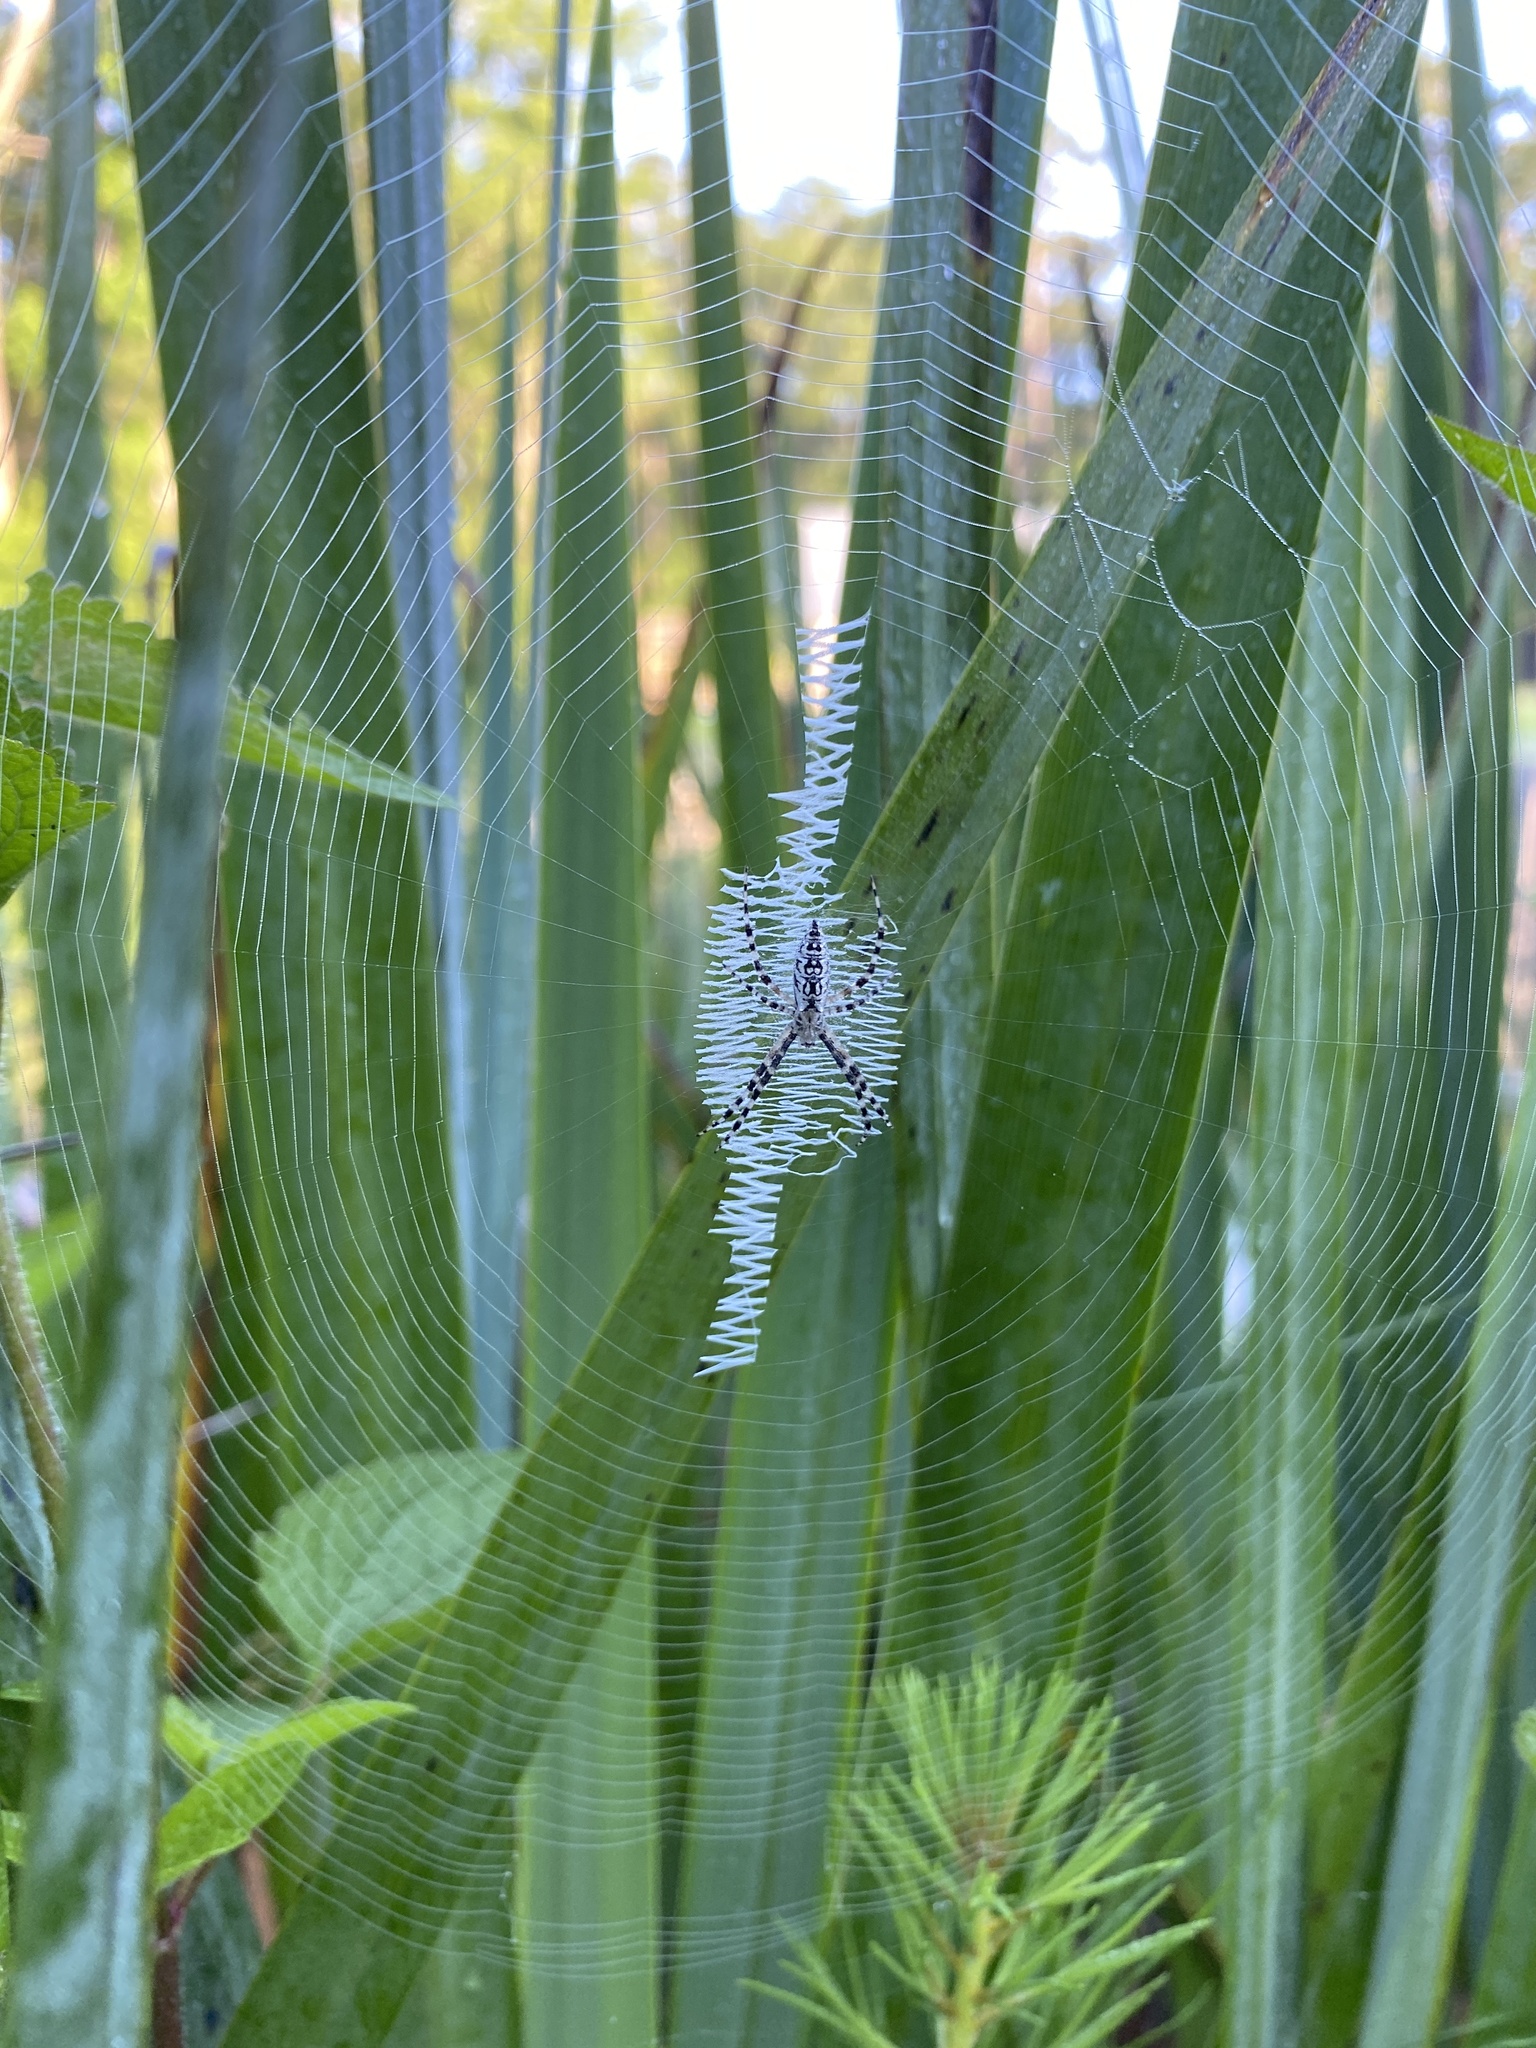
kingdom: Animalia
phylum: Arthropoda
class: Arachnida
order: Araneae
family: Araneidae
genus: Argiope
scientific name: Argiope aurantia
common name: Orb weavers
